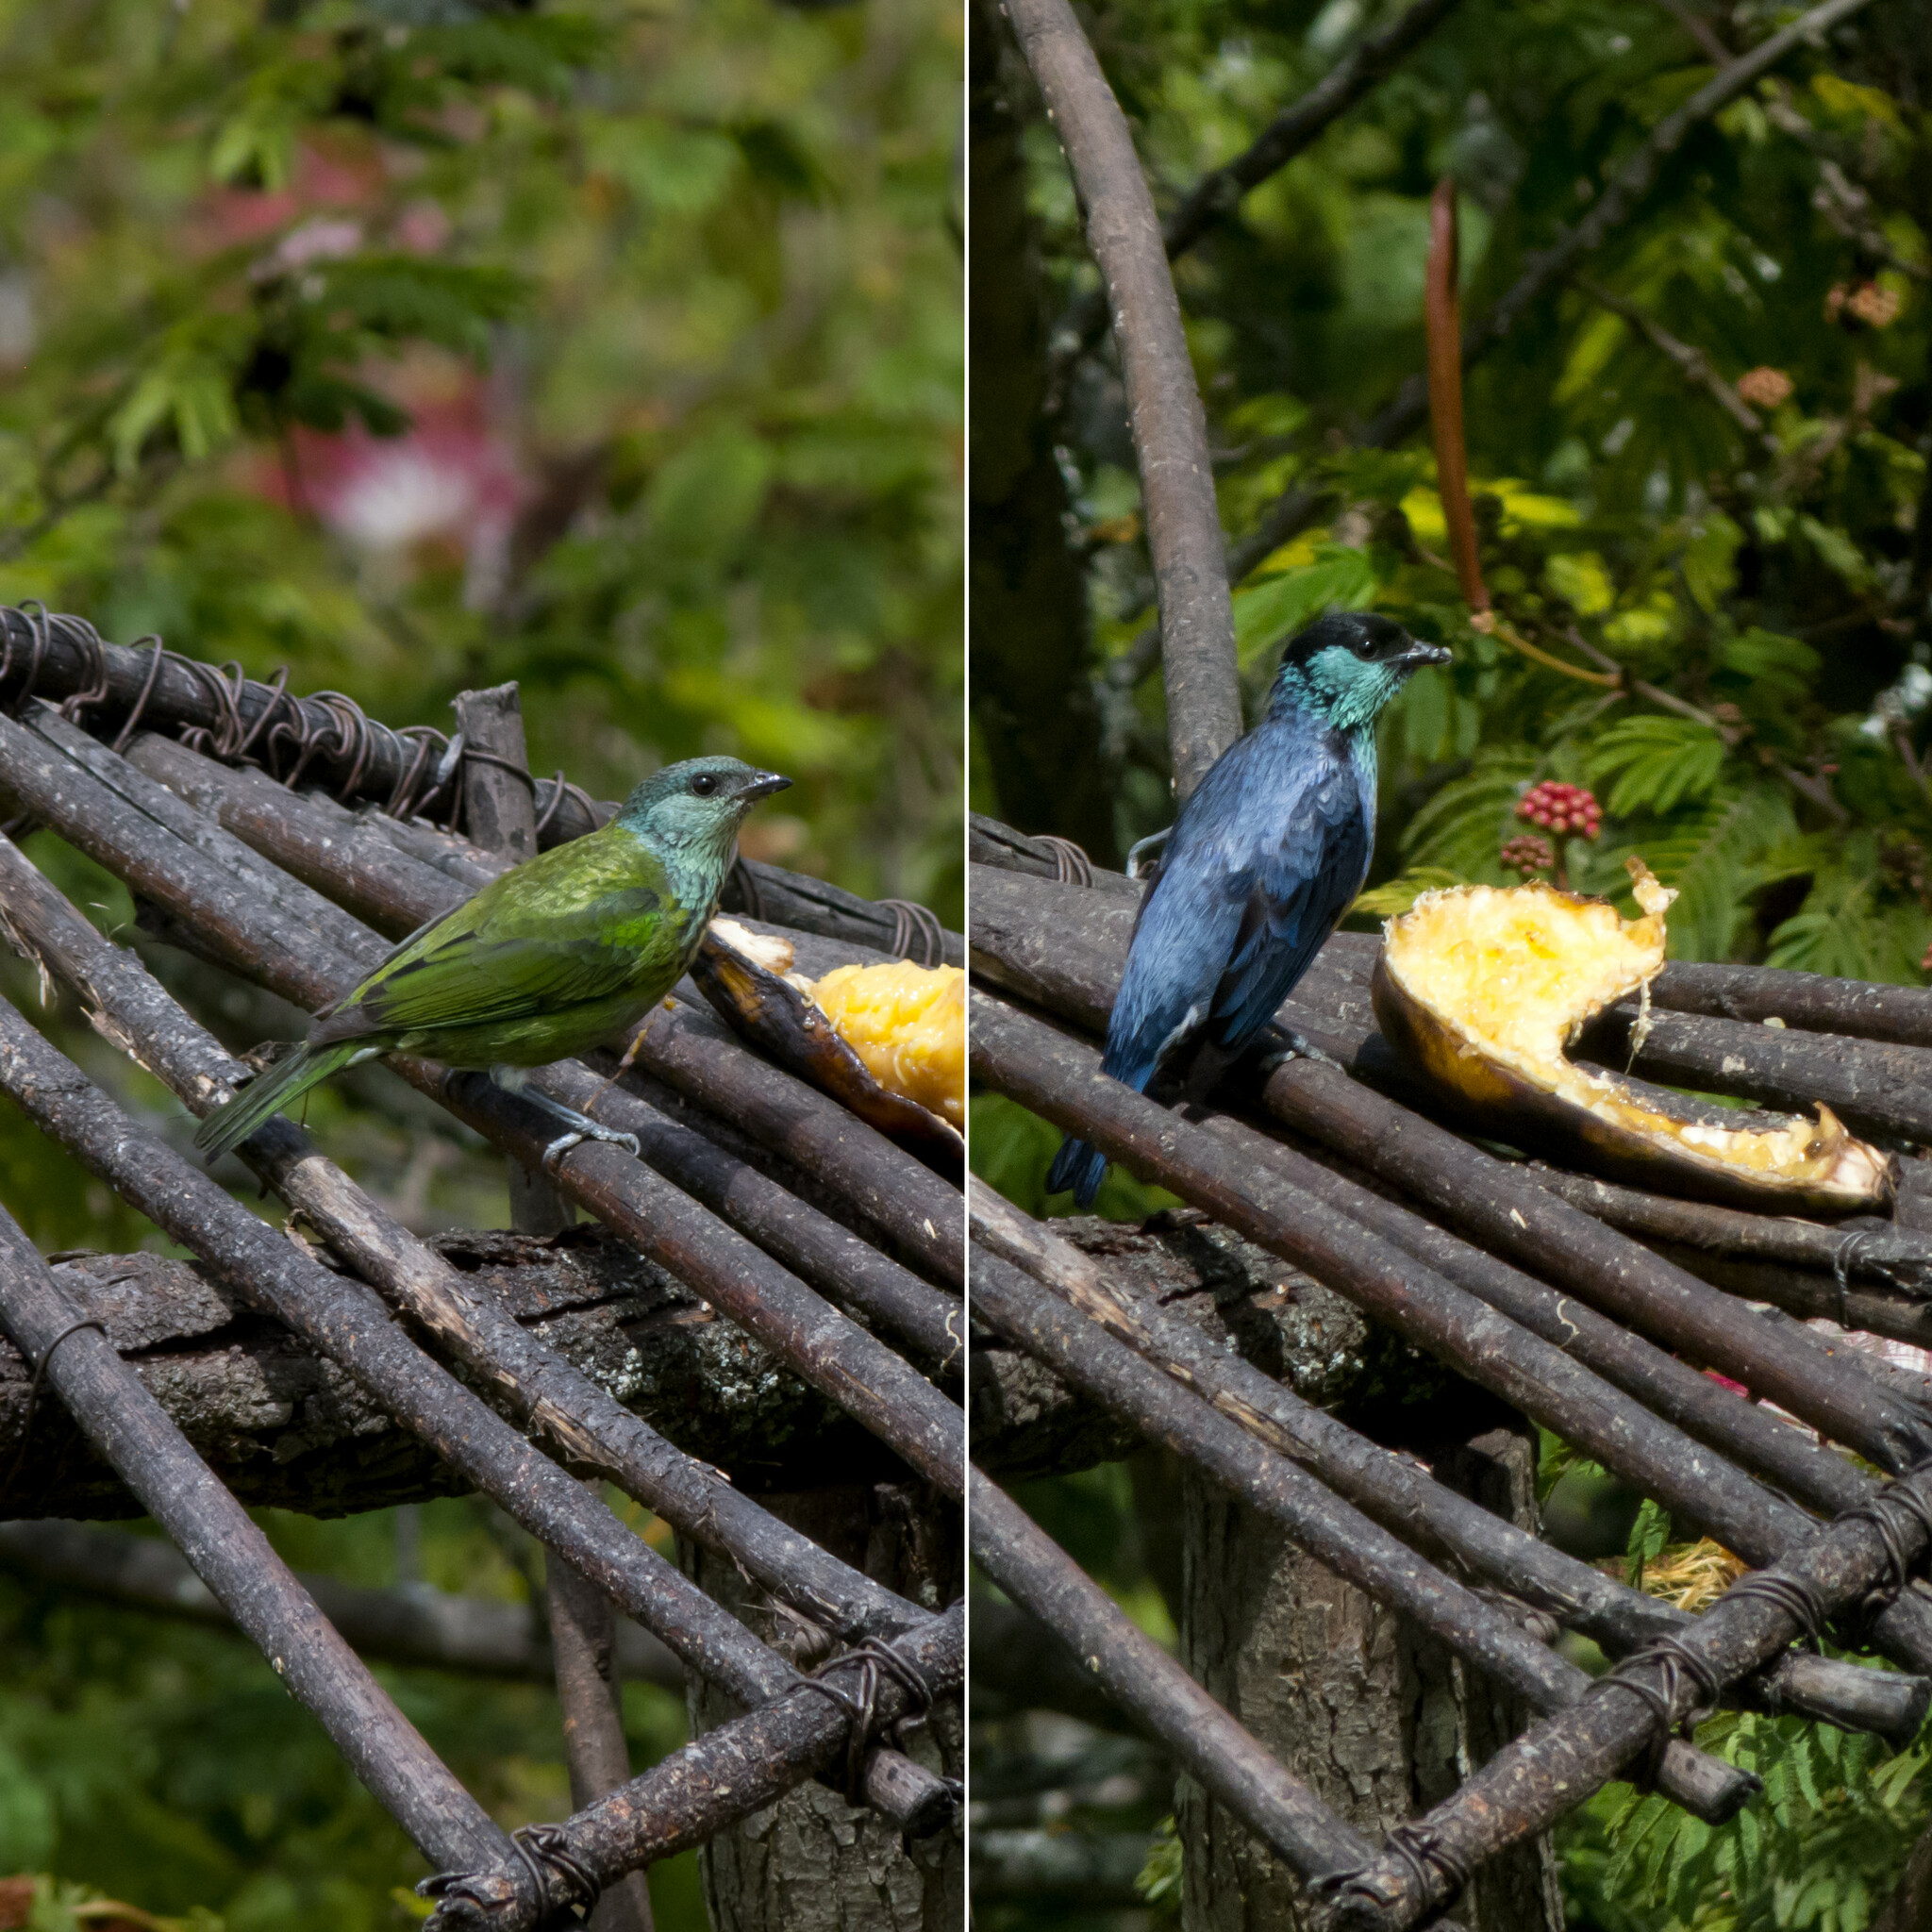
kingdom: Animalia
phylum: Chordata
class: Aves
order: Passeriformes
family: Thraupidae
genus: Stilpnia
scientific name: Stilpnia heinei
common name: Black-capped tanager
